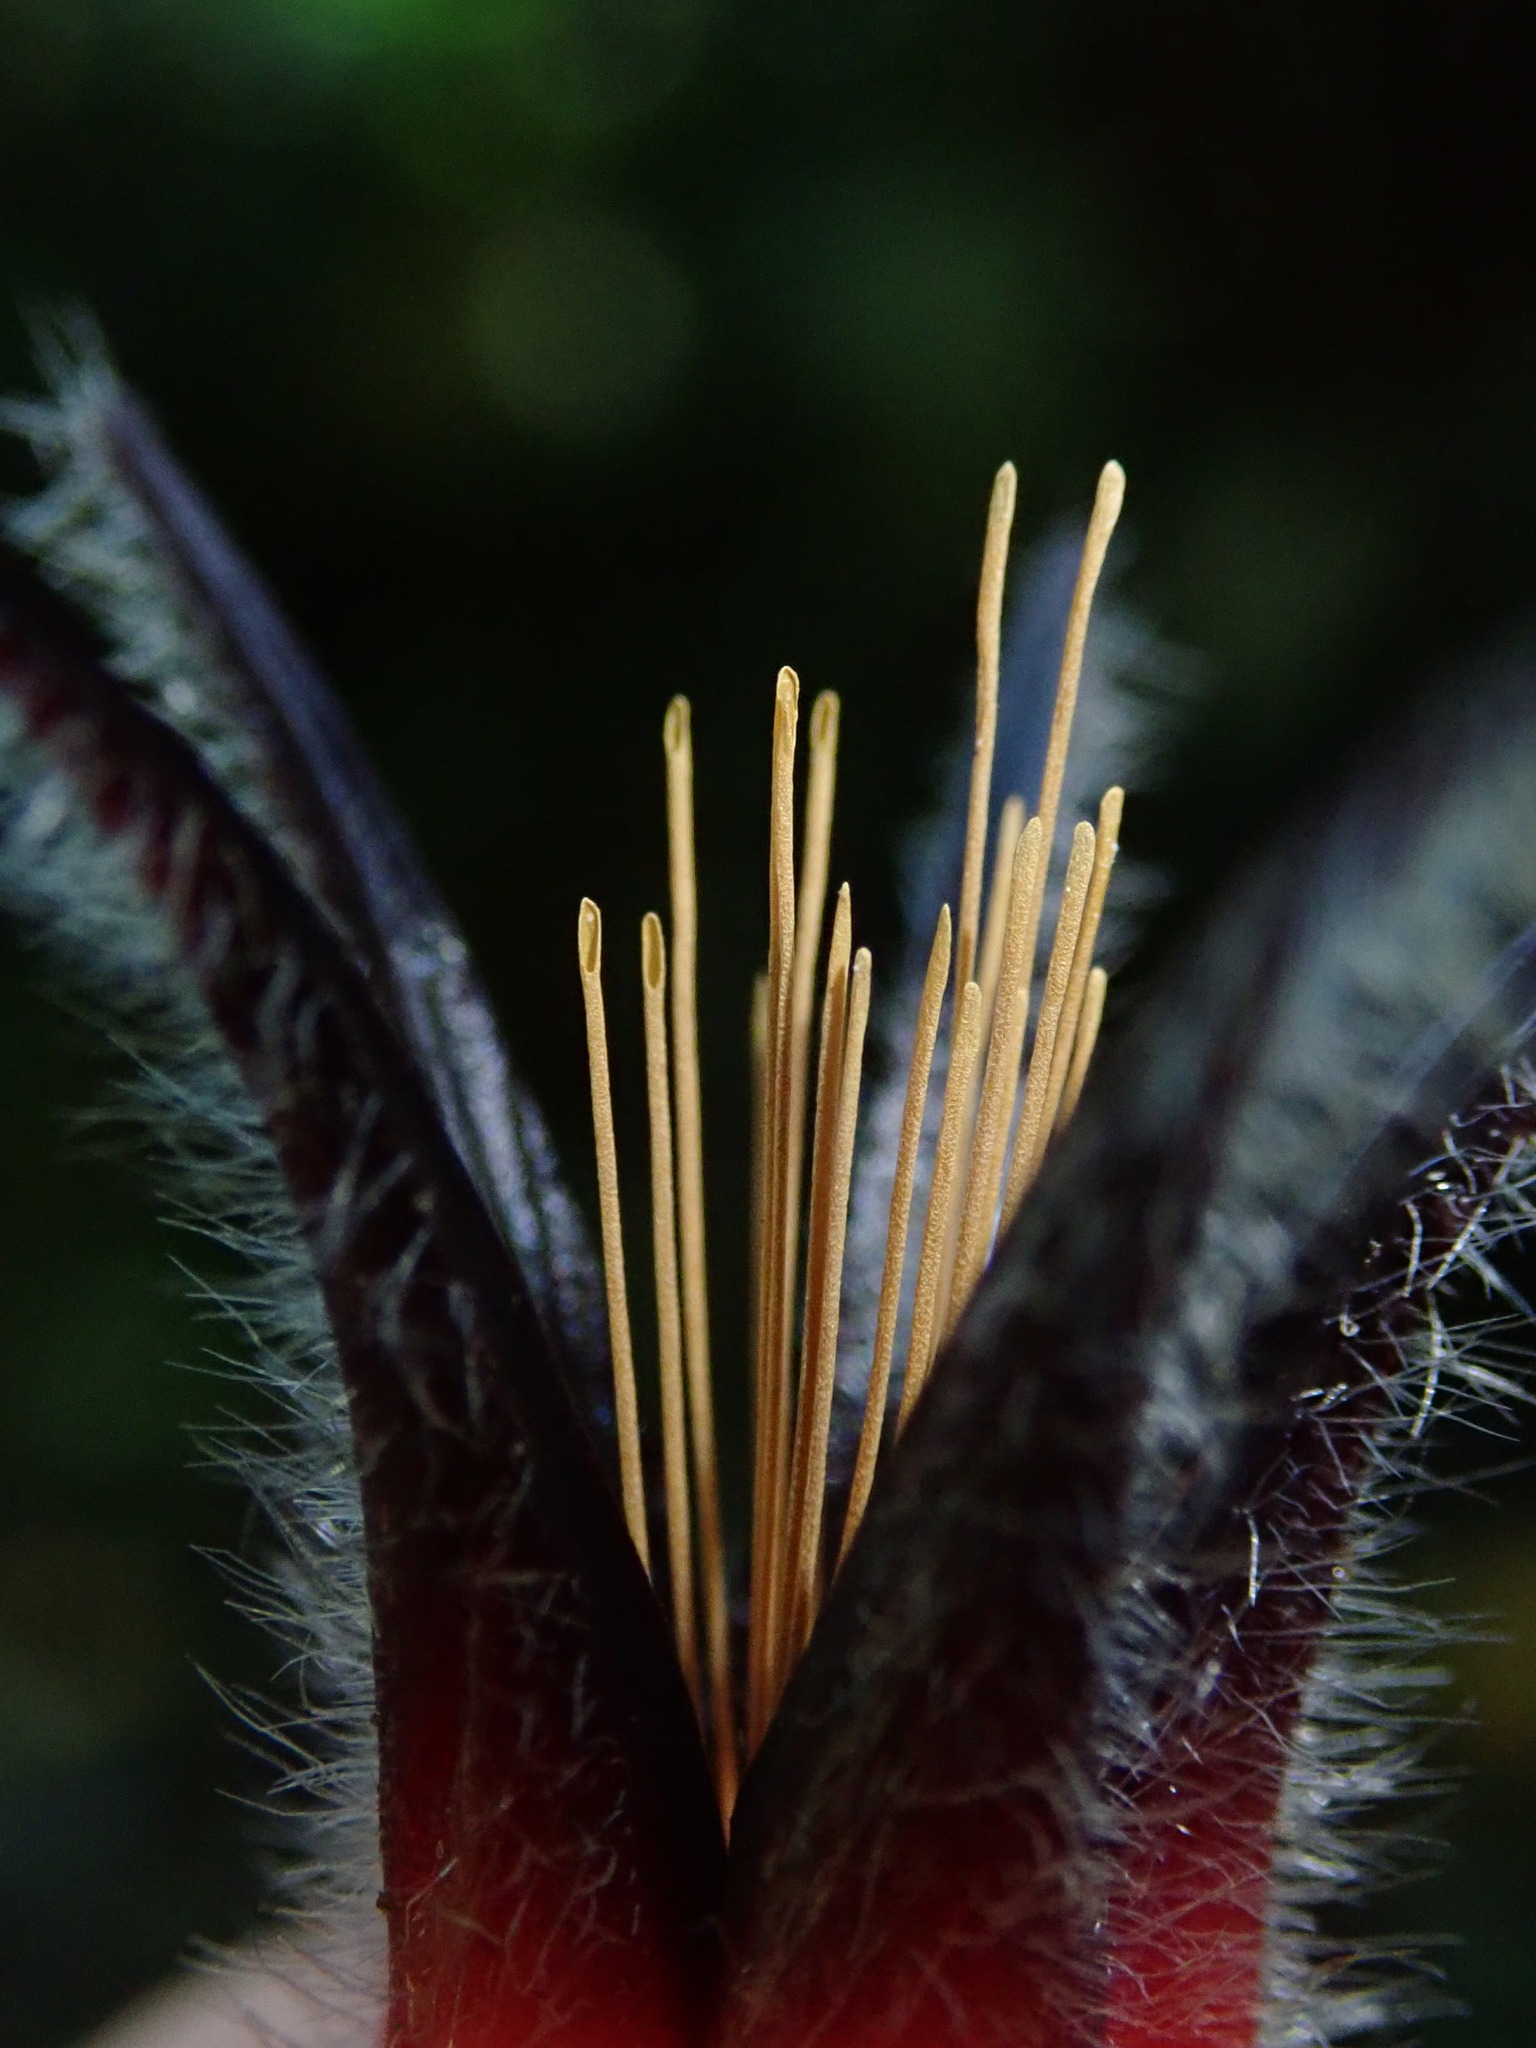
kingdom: Plantae
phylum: Tracheophyta
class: Magnoliopsida
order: Ericales
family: Ericaceae
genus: Ceratostema
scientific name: Ceratostema lanigerum
